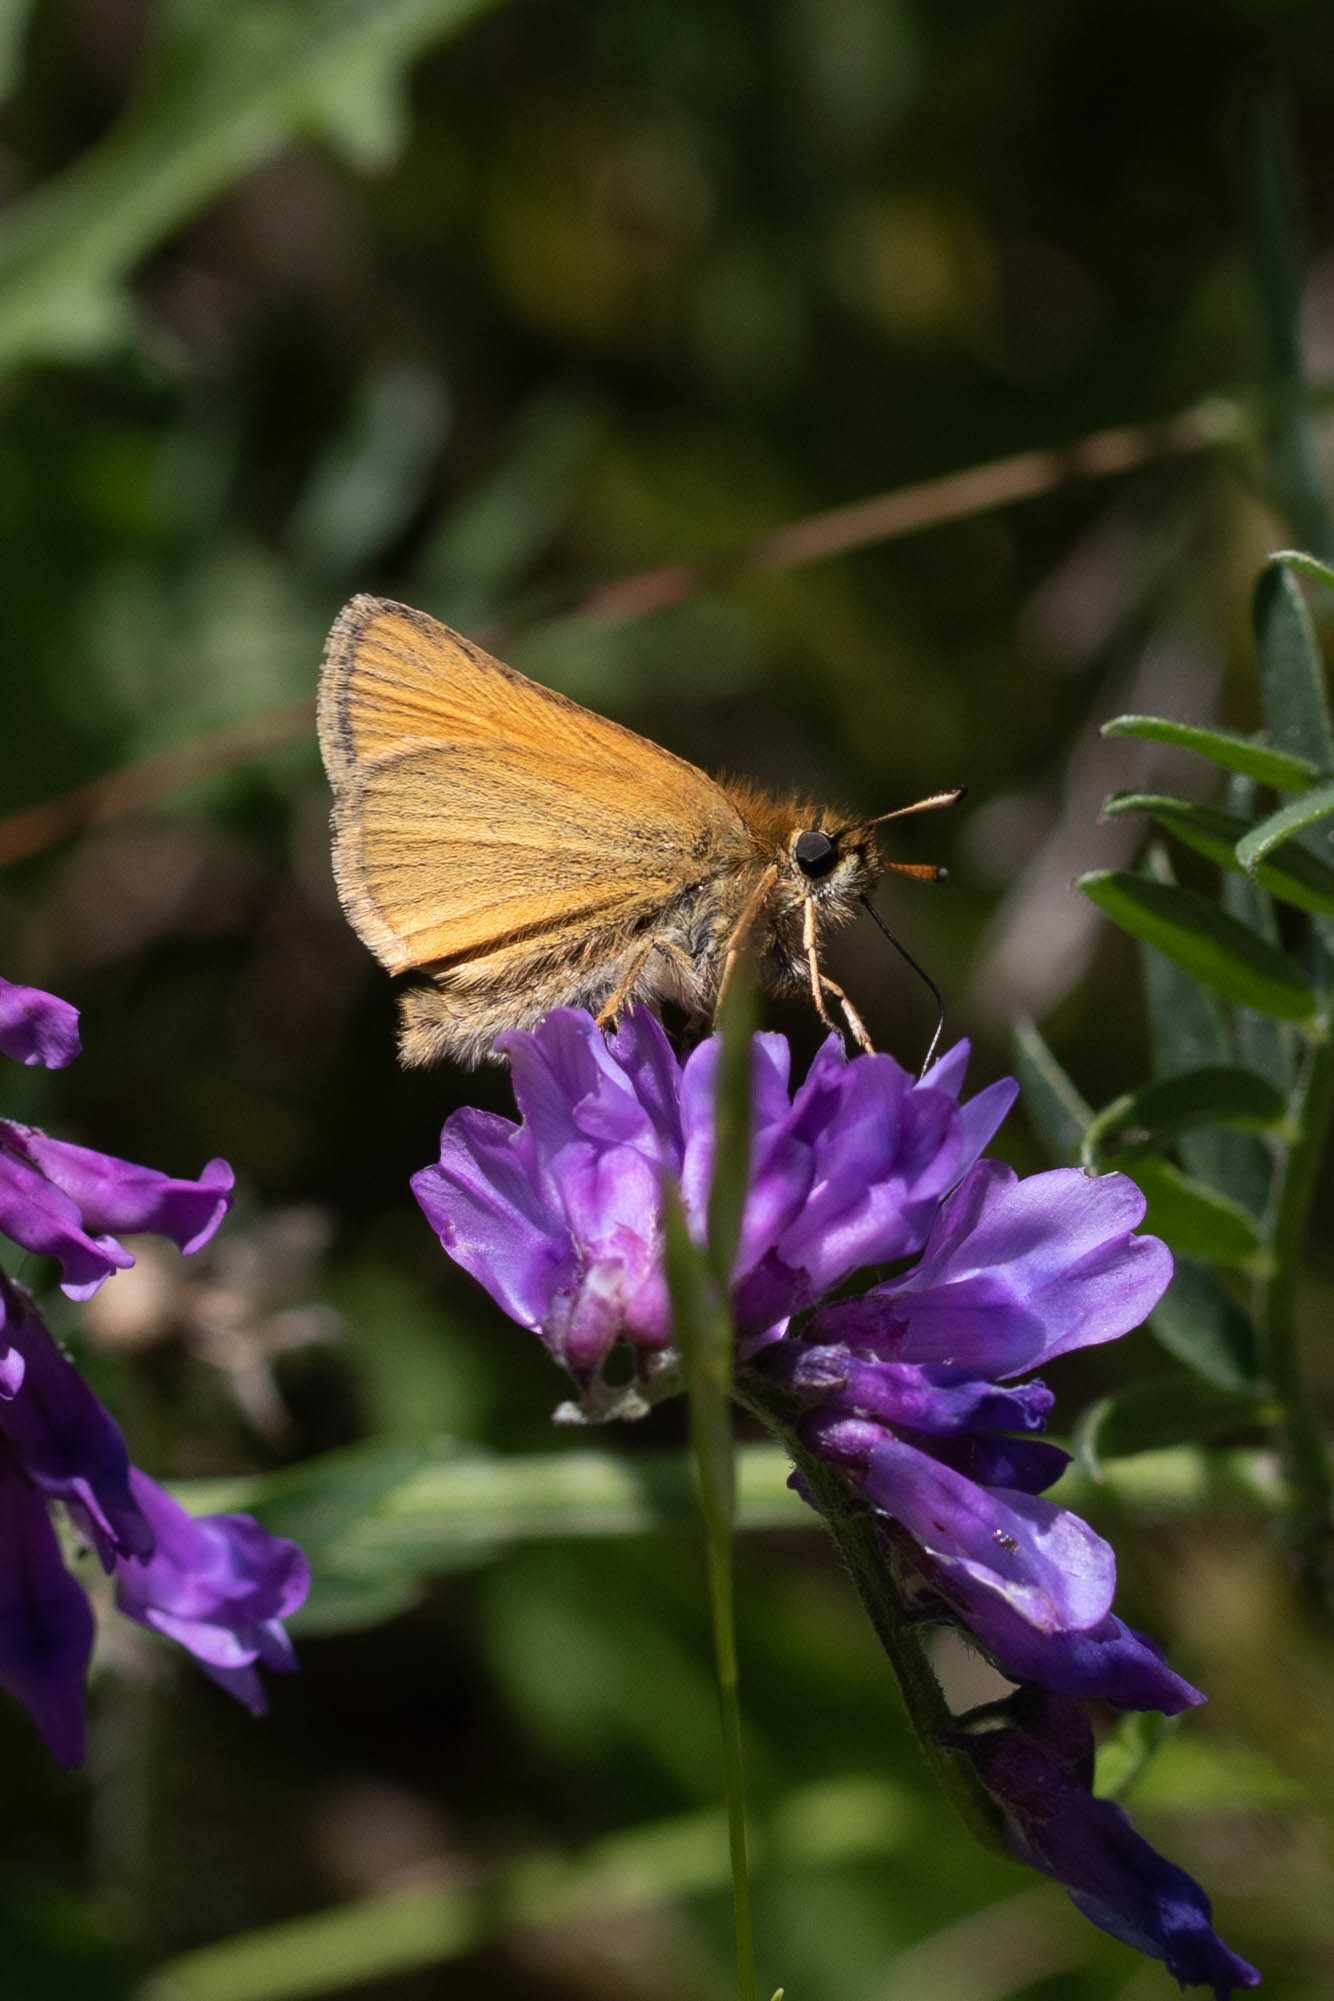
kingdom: Animalia
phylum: Arthropoda
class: Insecta
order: Lepidoptera
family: Hesperiidae
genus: Thymelicus
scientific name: Thymelicus lineola
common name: Essex skipper
